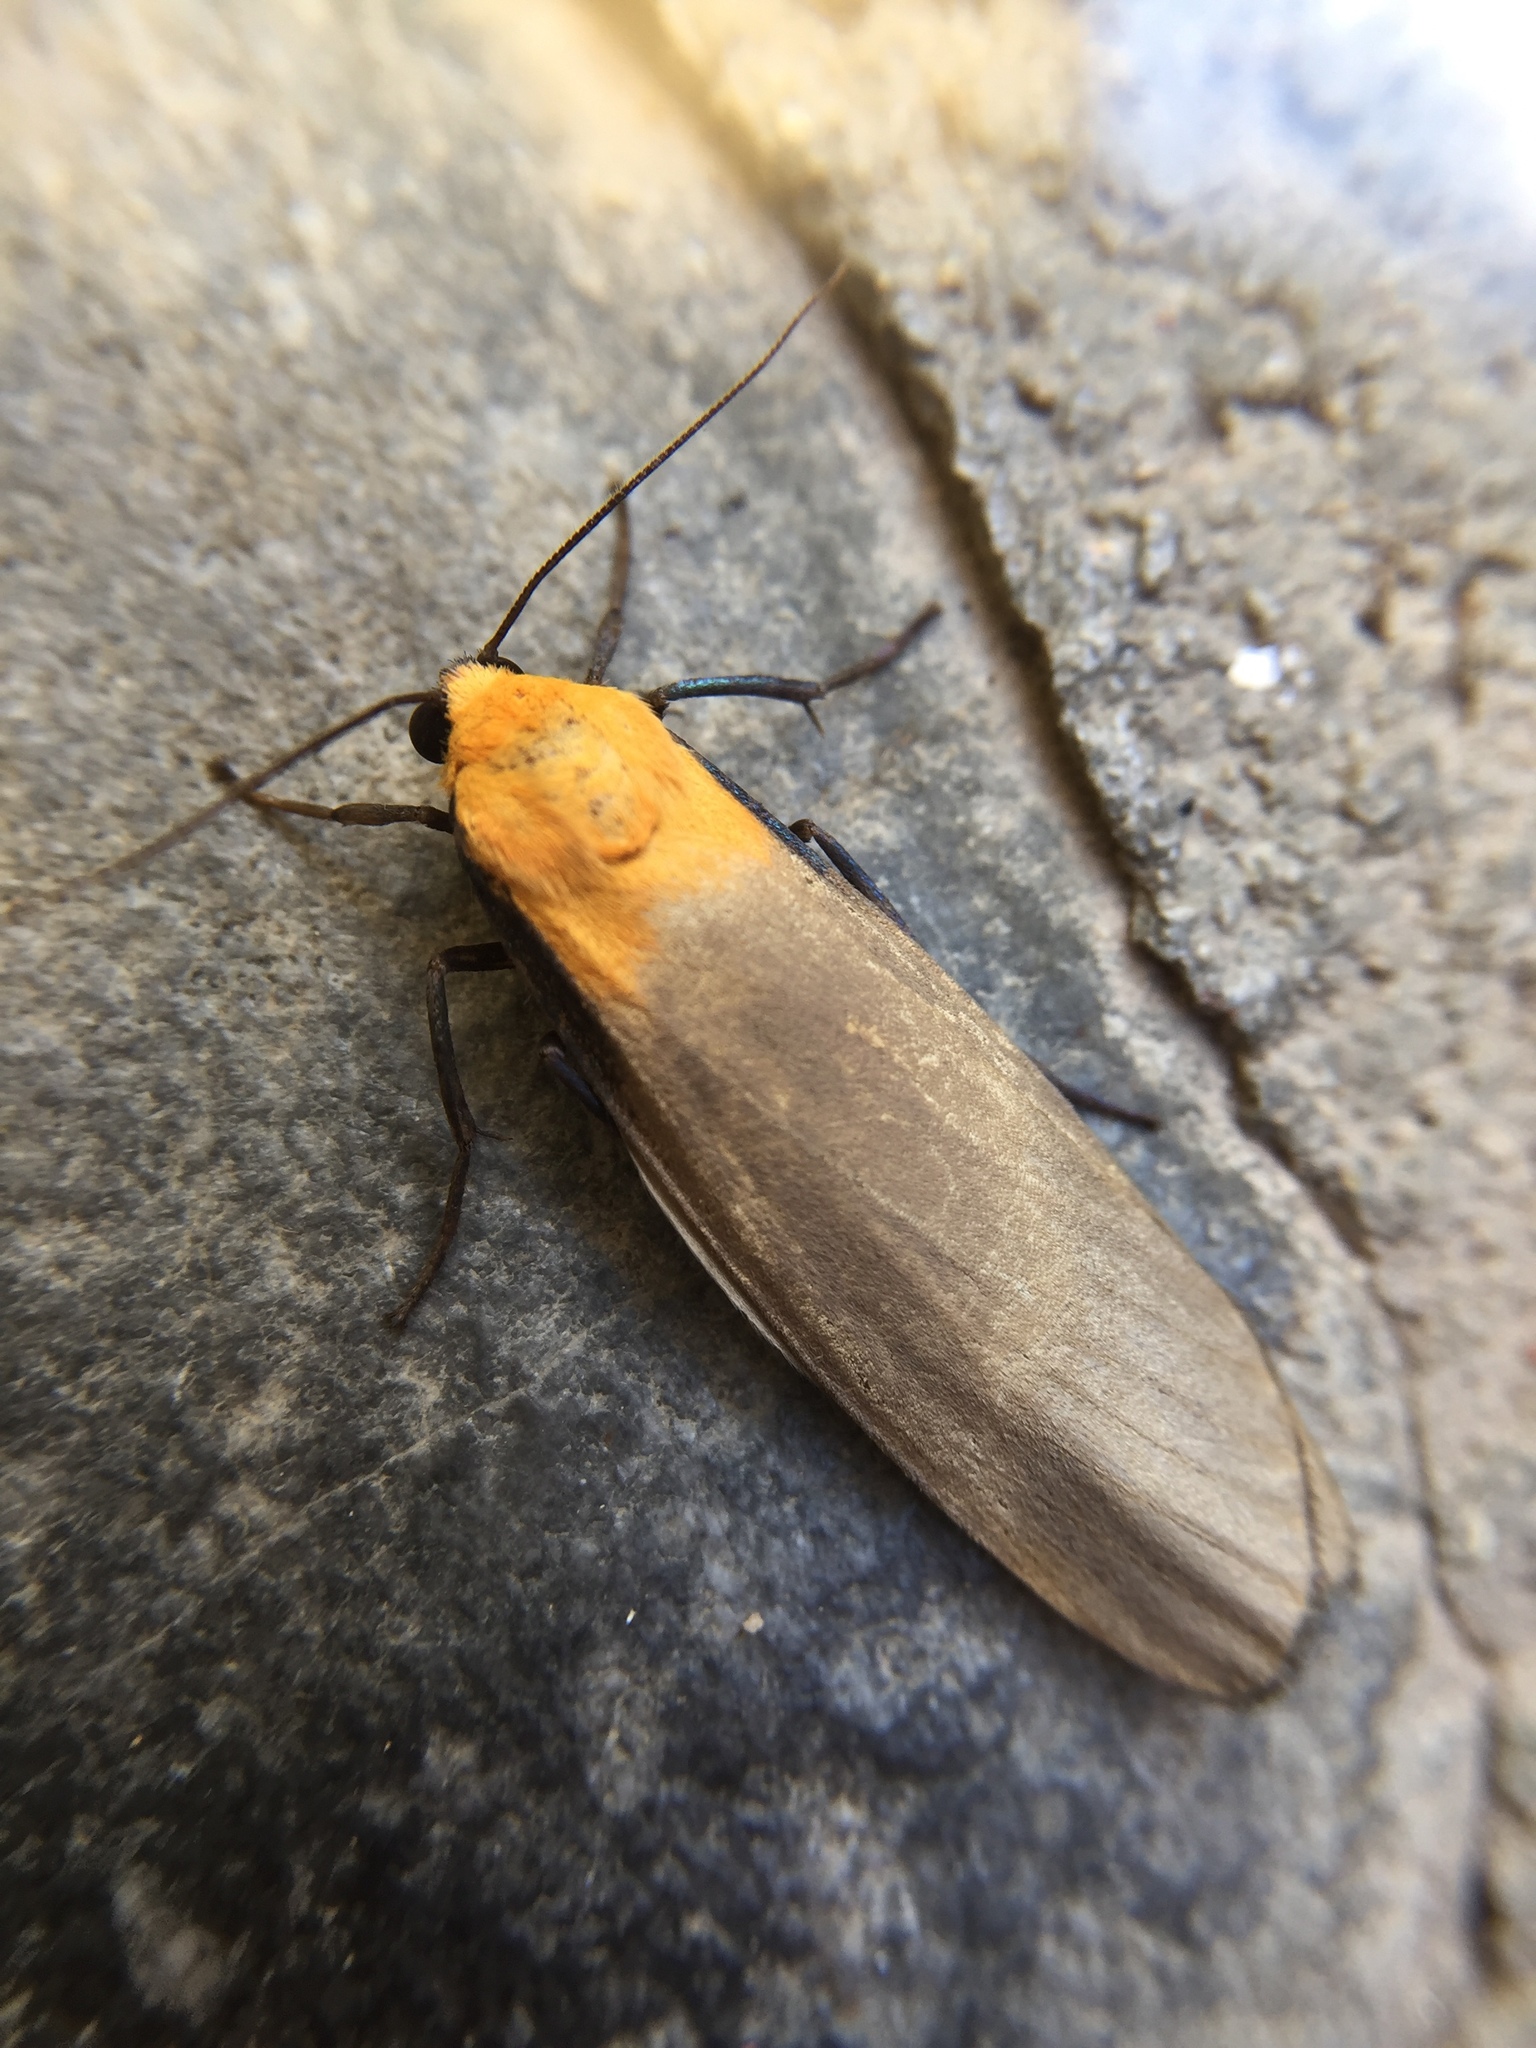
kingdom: Animalia
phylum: Arthropoda
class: Insecta
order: Lepidoptera
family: Erebidae
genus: Lithosia
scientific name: Lithosia quadra
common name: Four-spotted footman
